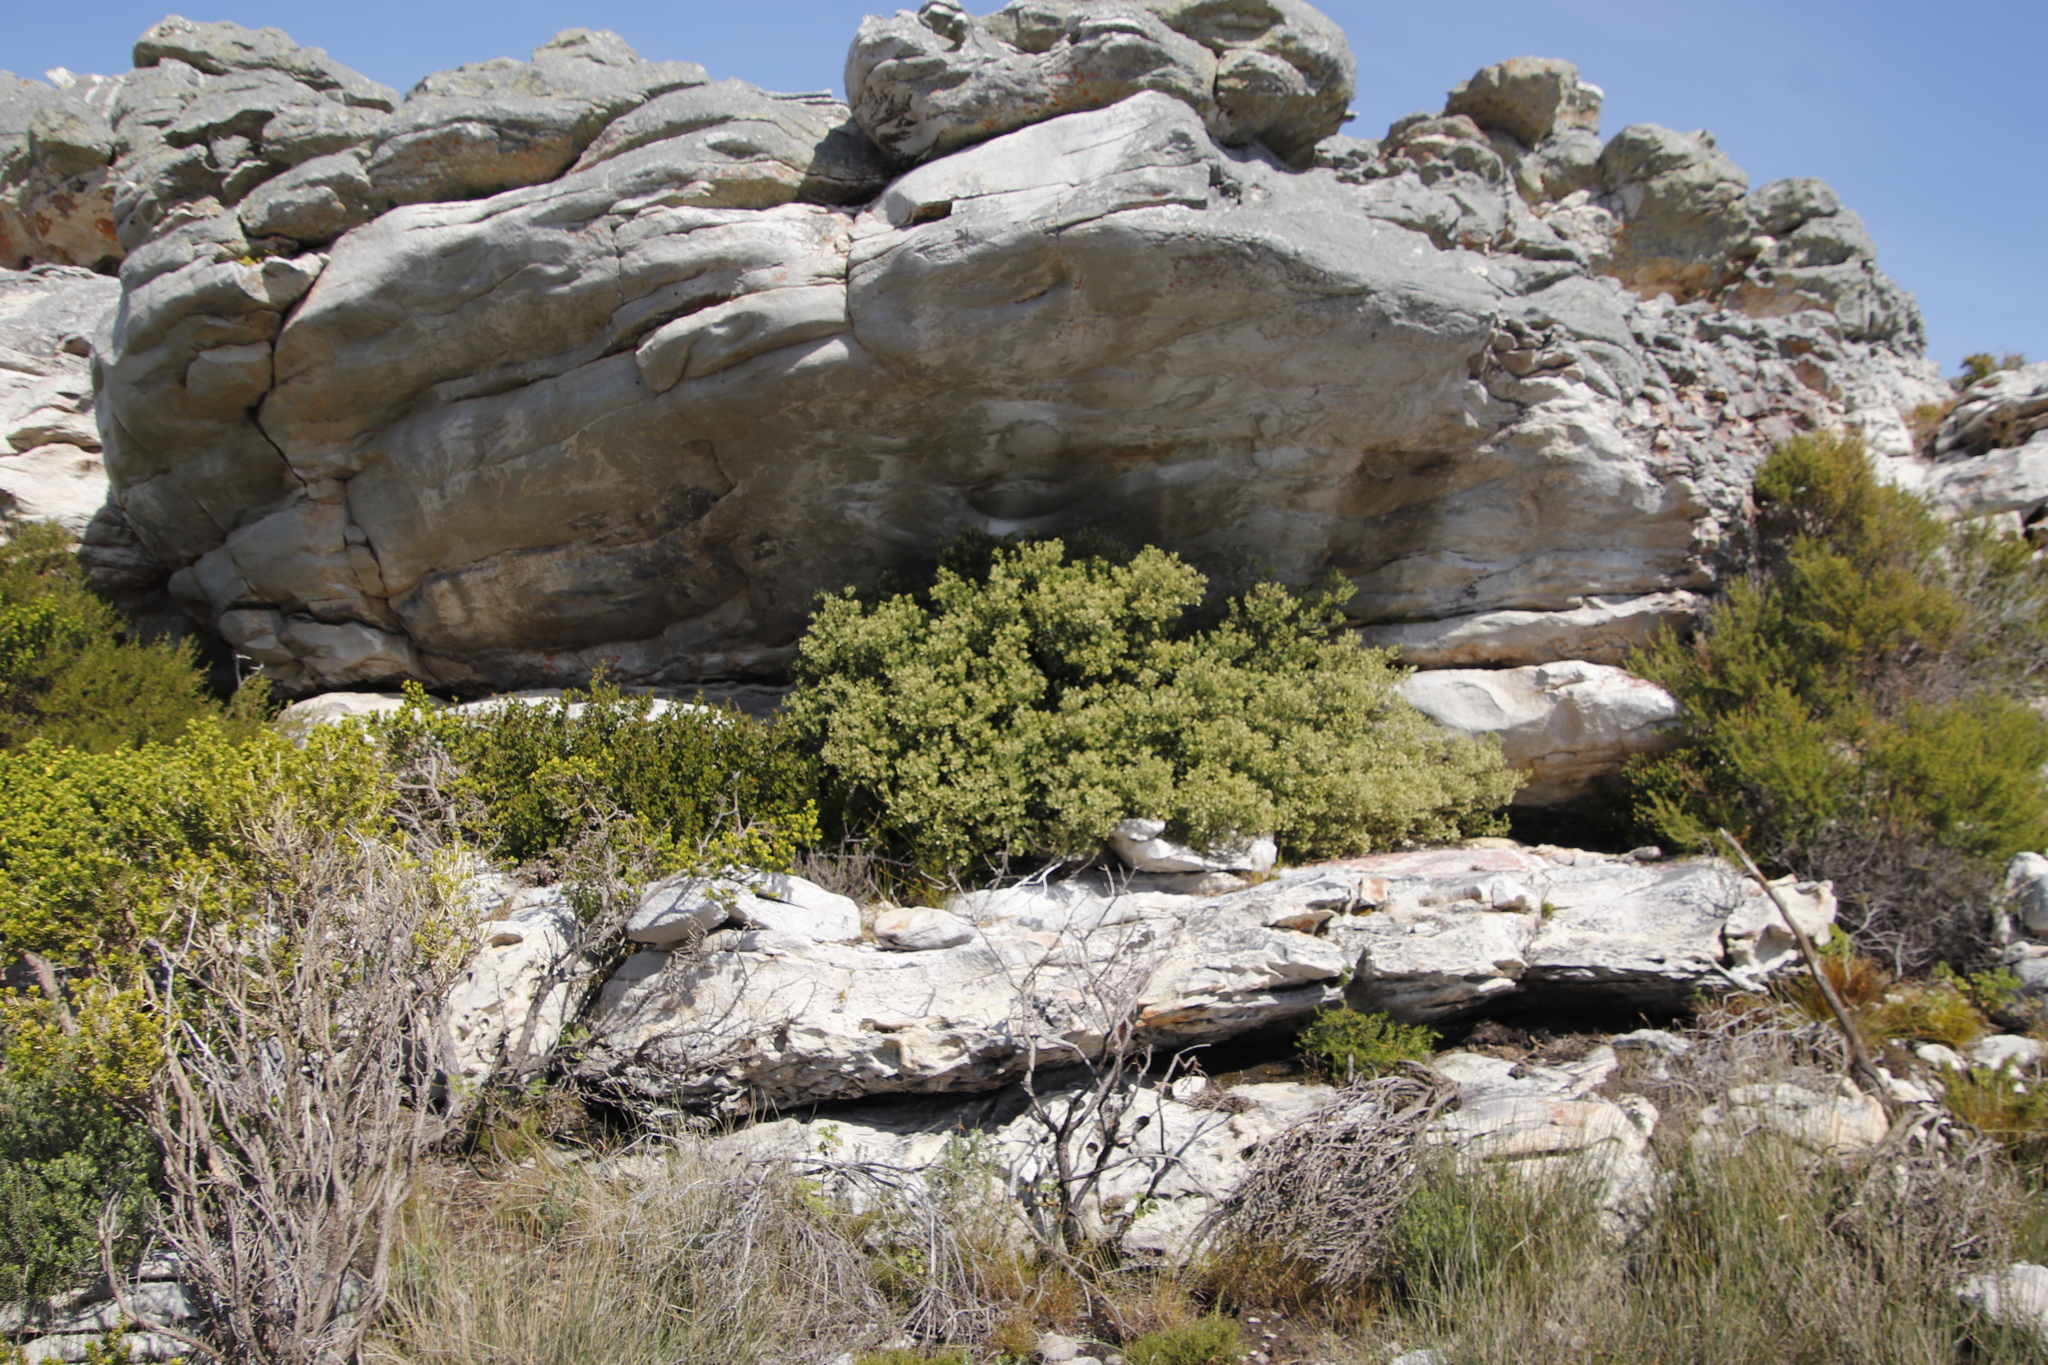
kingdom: Plantae
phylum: Tracheophyta
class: Magnoliopsida
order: Rosales
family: Rhamnaceae
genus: Phylica
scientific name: Phylica buxifolia
